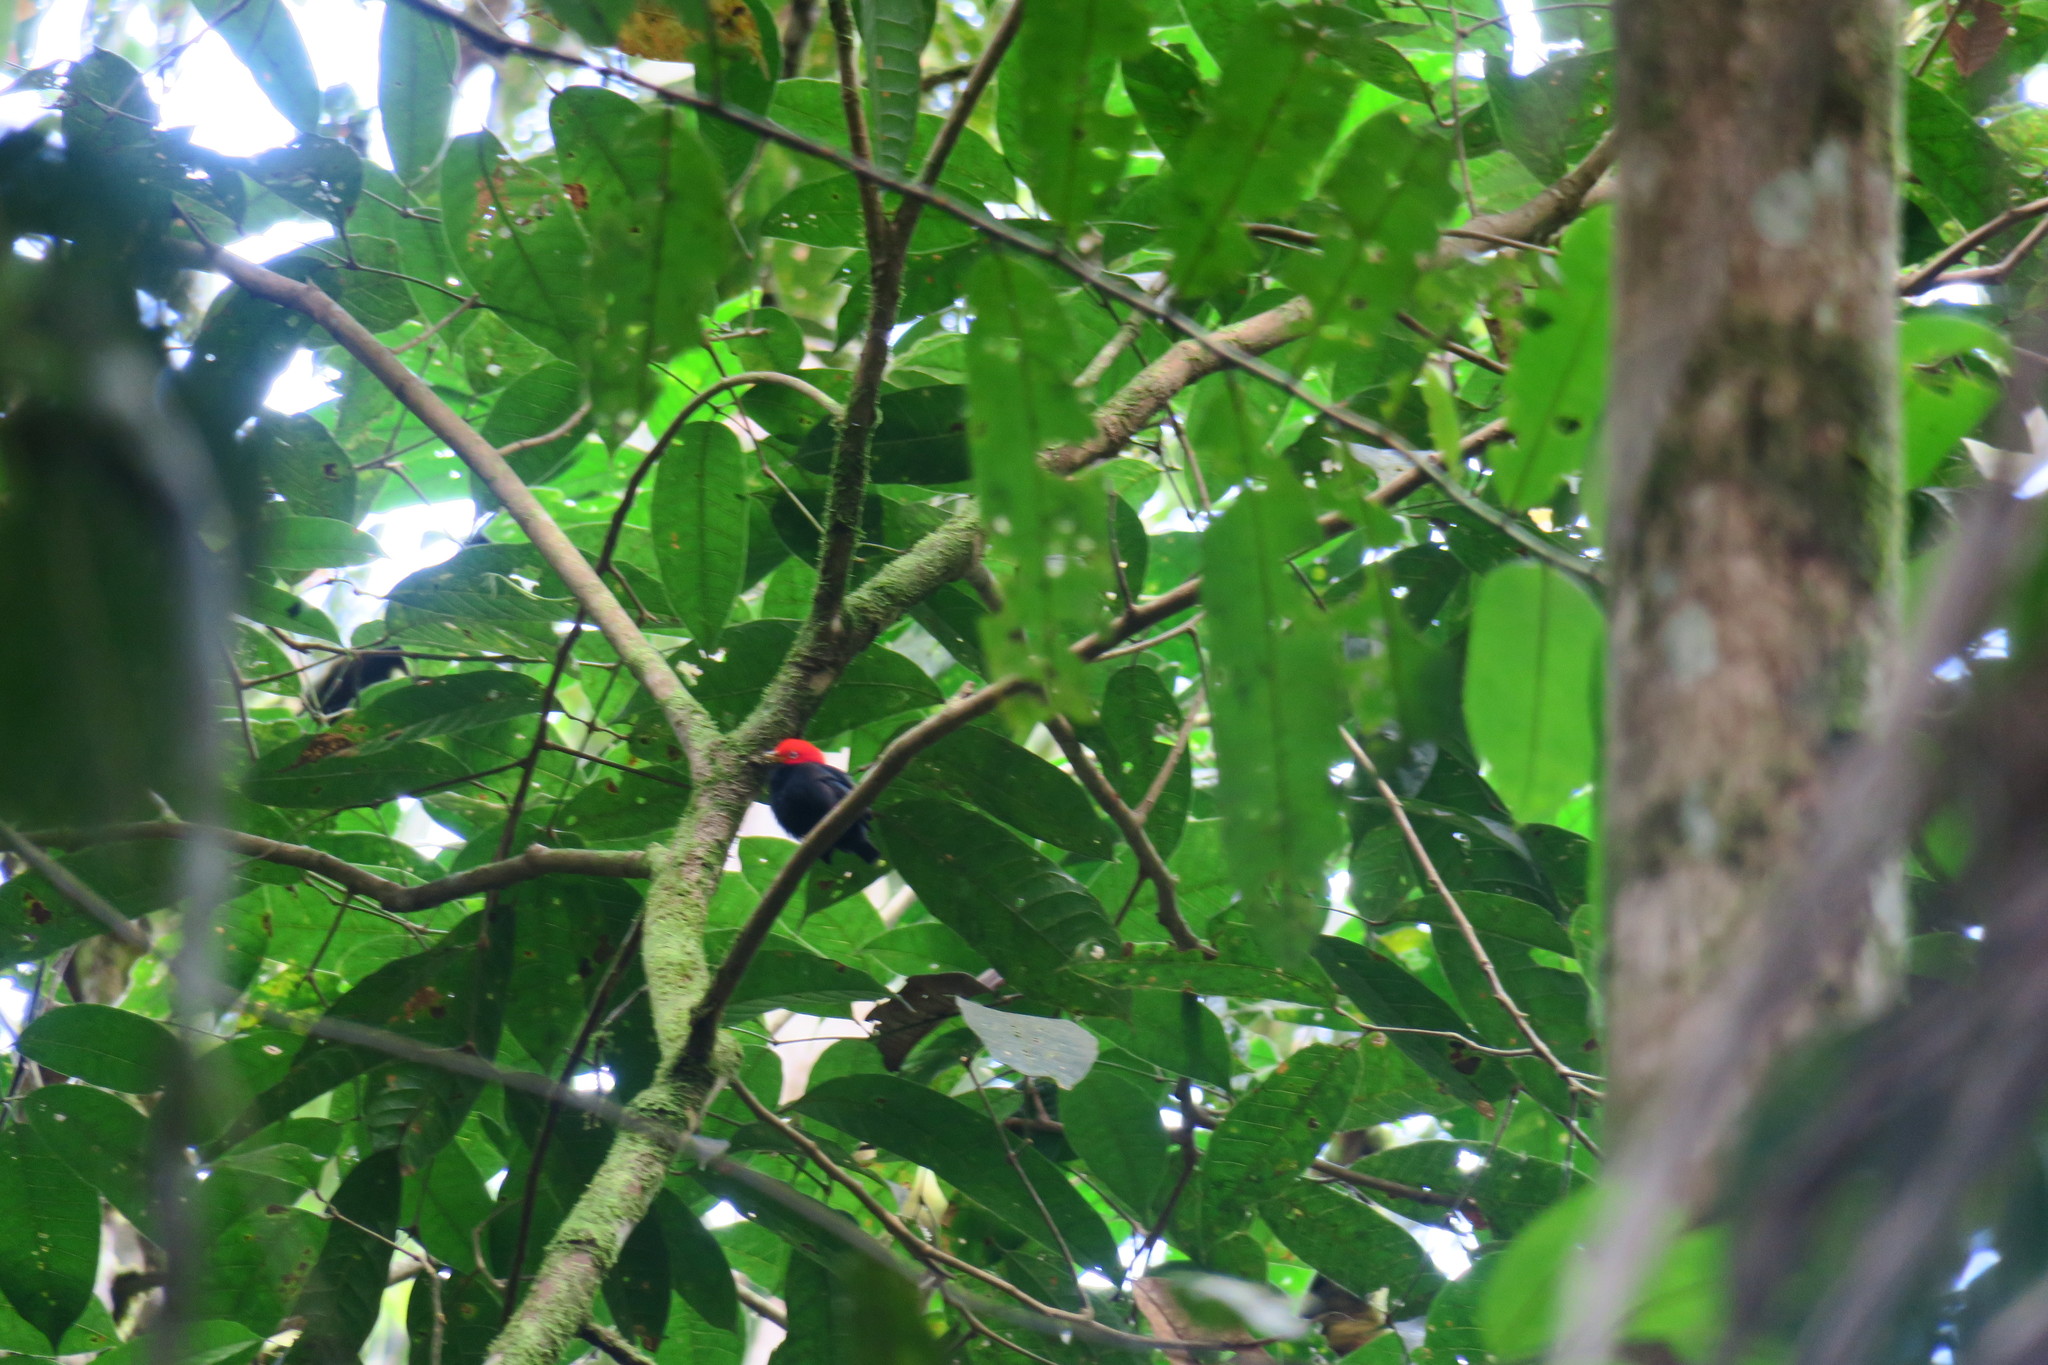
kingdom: Animalia
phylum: Chordata
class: Aves
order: Passeriformes
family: Pipridae
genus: Pipra
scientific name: Pipra mentalis
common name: Red-capped manakin
